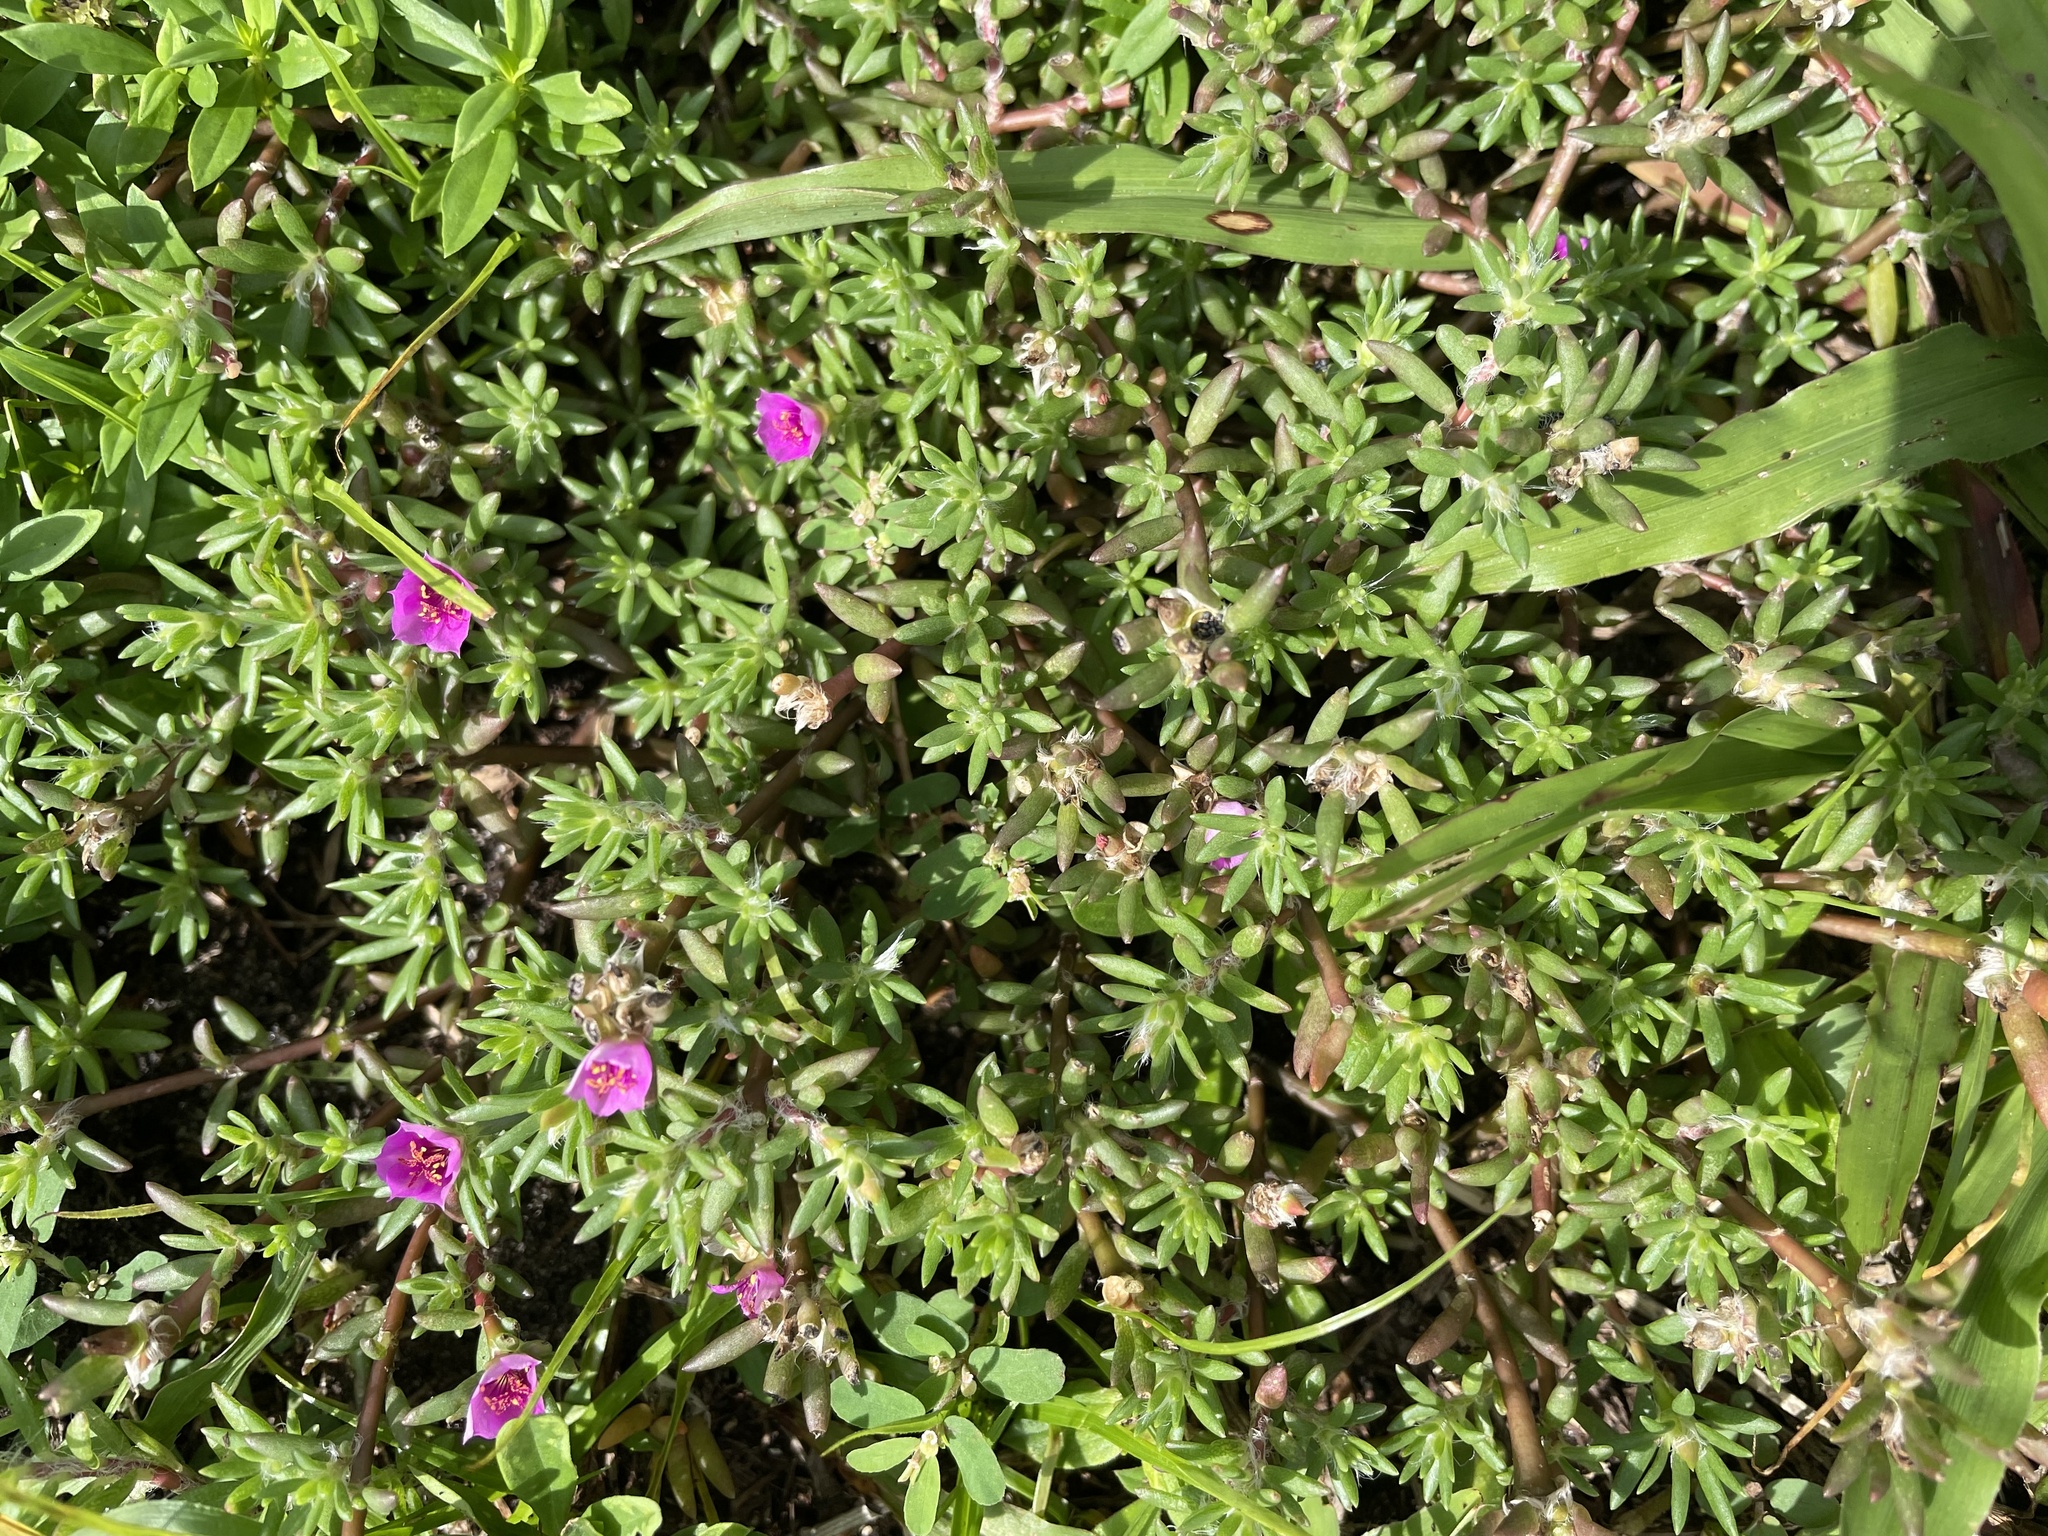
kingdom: Plantae
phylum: Tracheophyta
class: Magnoliopsida
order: Caryophyllales
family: Portulacaceae
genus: Portulaca
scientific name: Portulaca pilosa
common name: Kiss me quick
